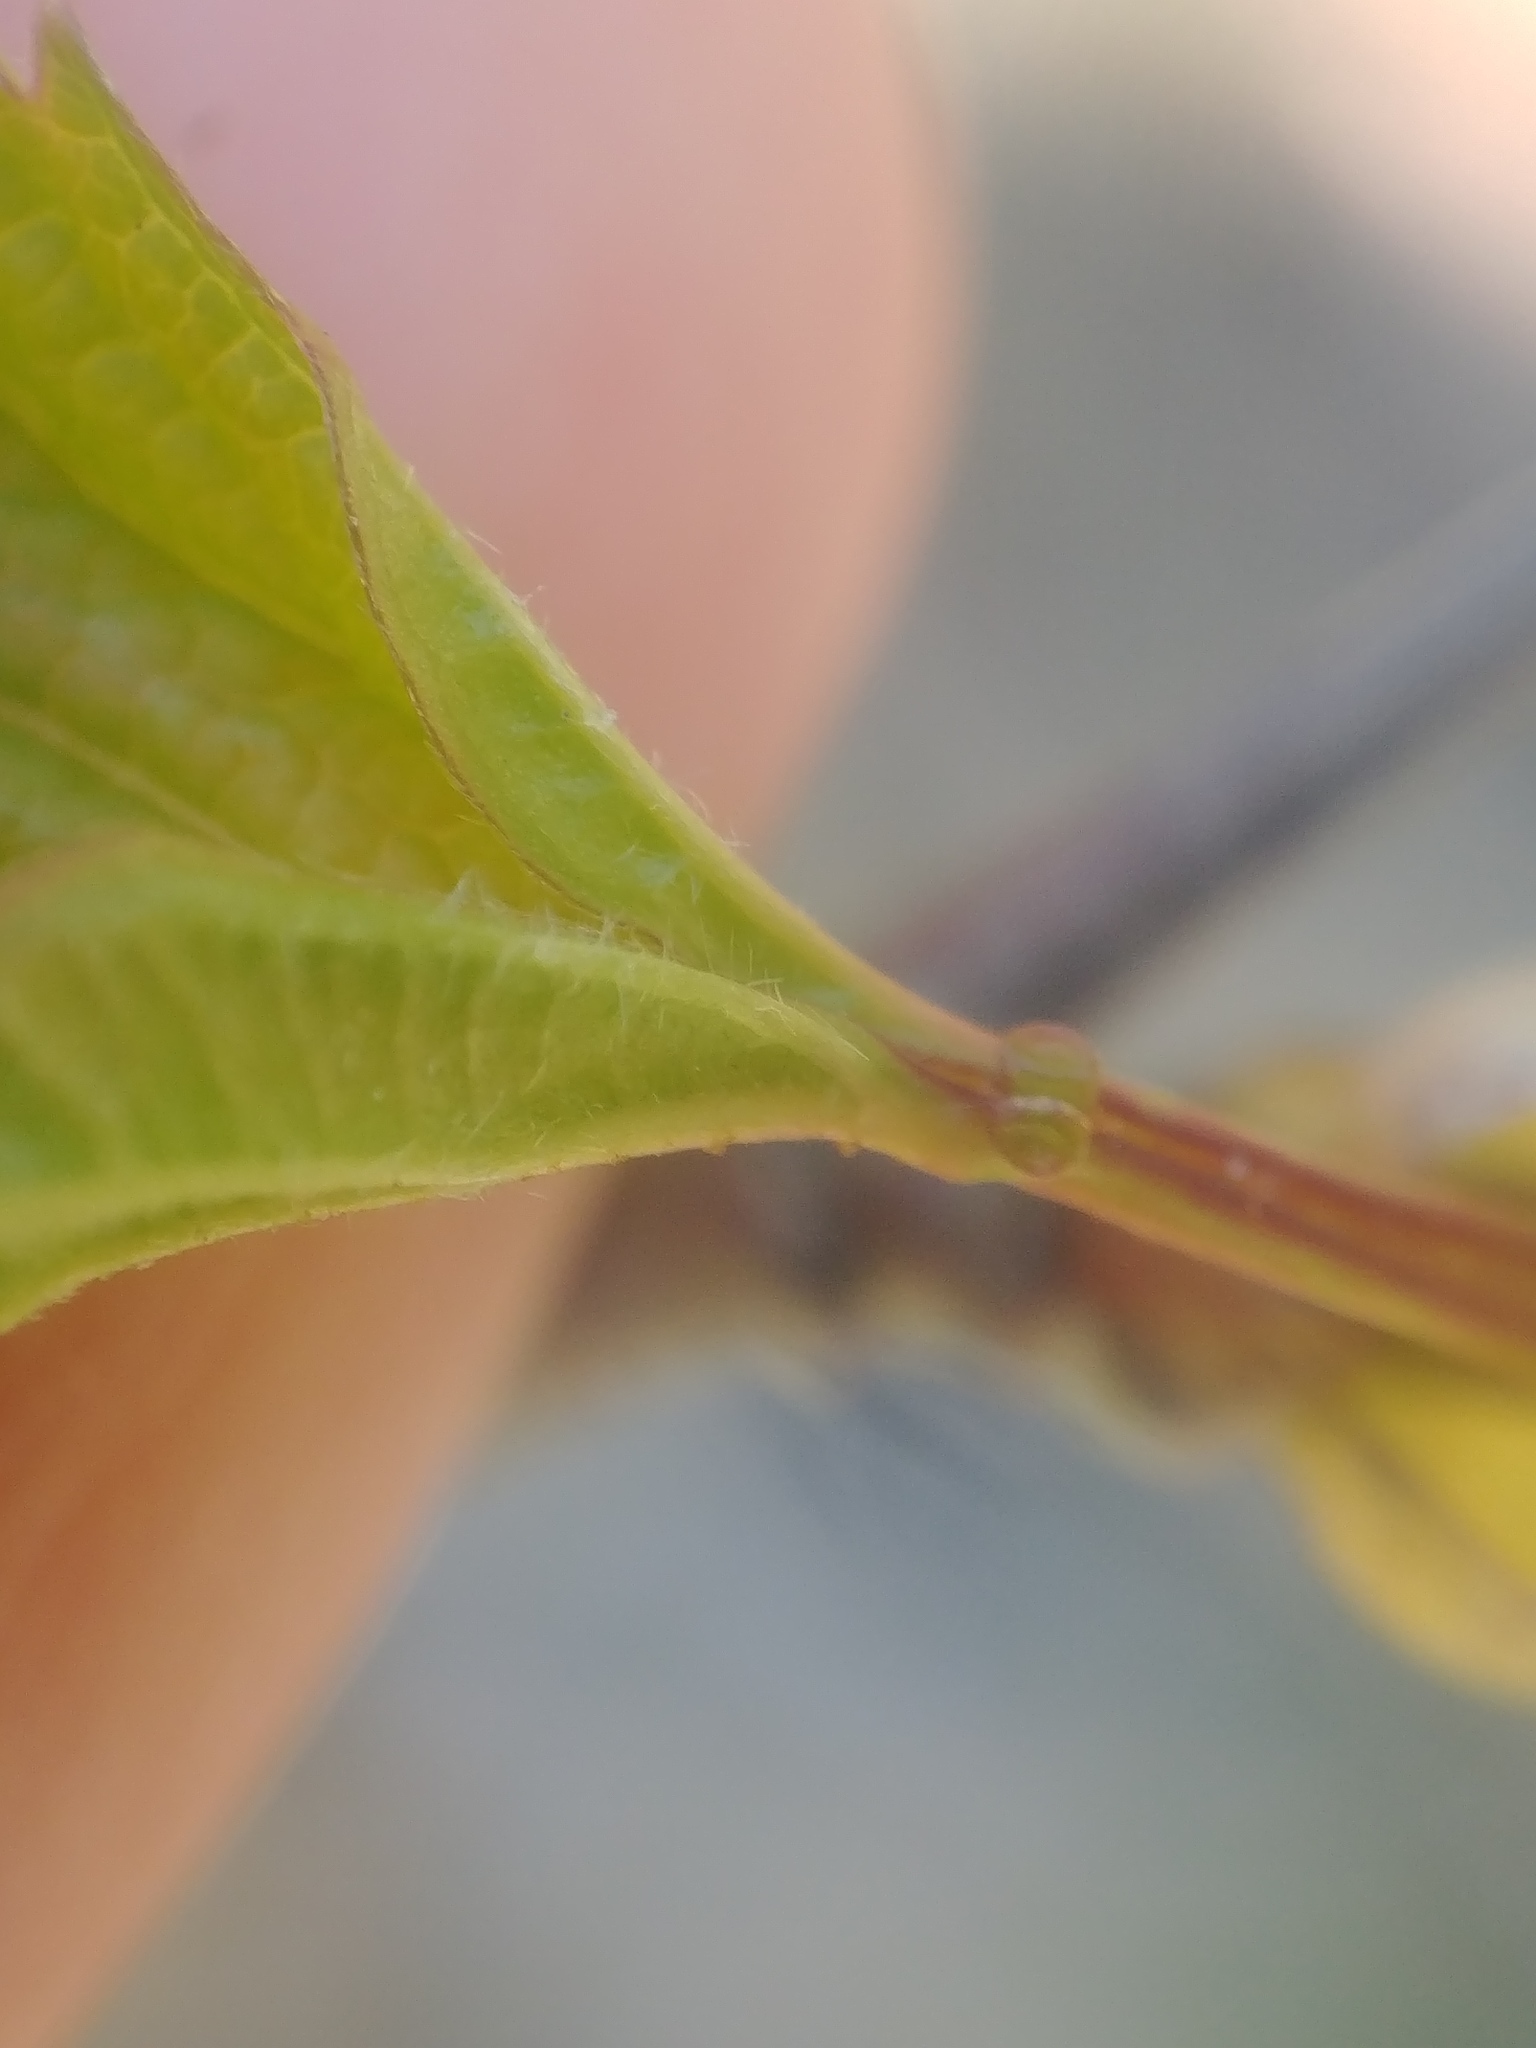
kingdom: Plantae
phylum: Tracheophyta
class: Magnoliopsida
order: Dipsacales
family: Viburnaceae
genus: Viburnum
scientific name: Viburnum opulus
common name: Guelder-rose
